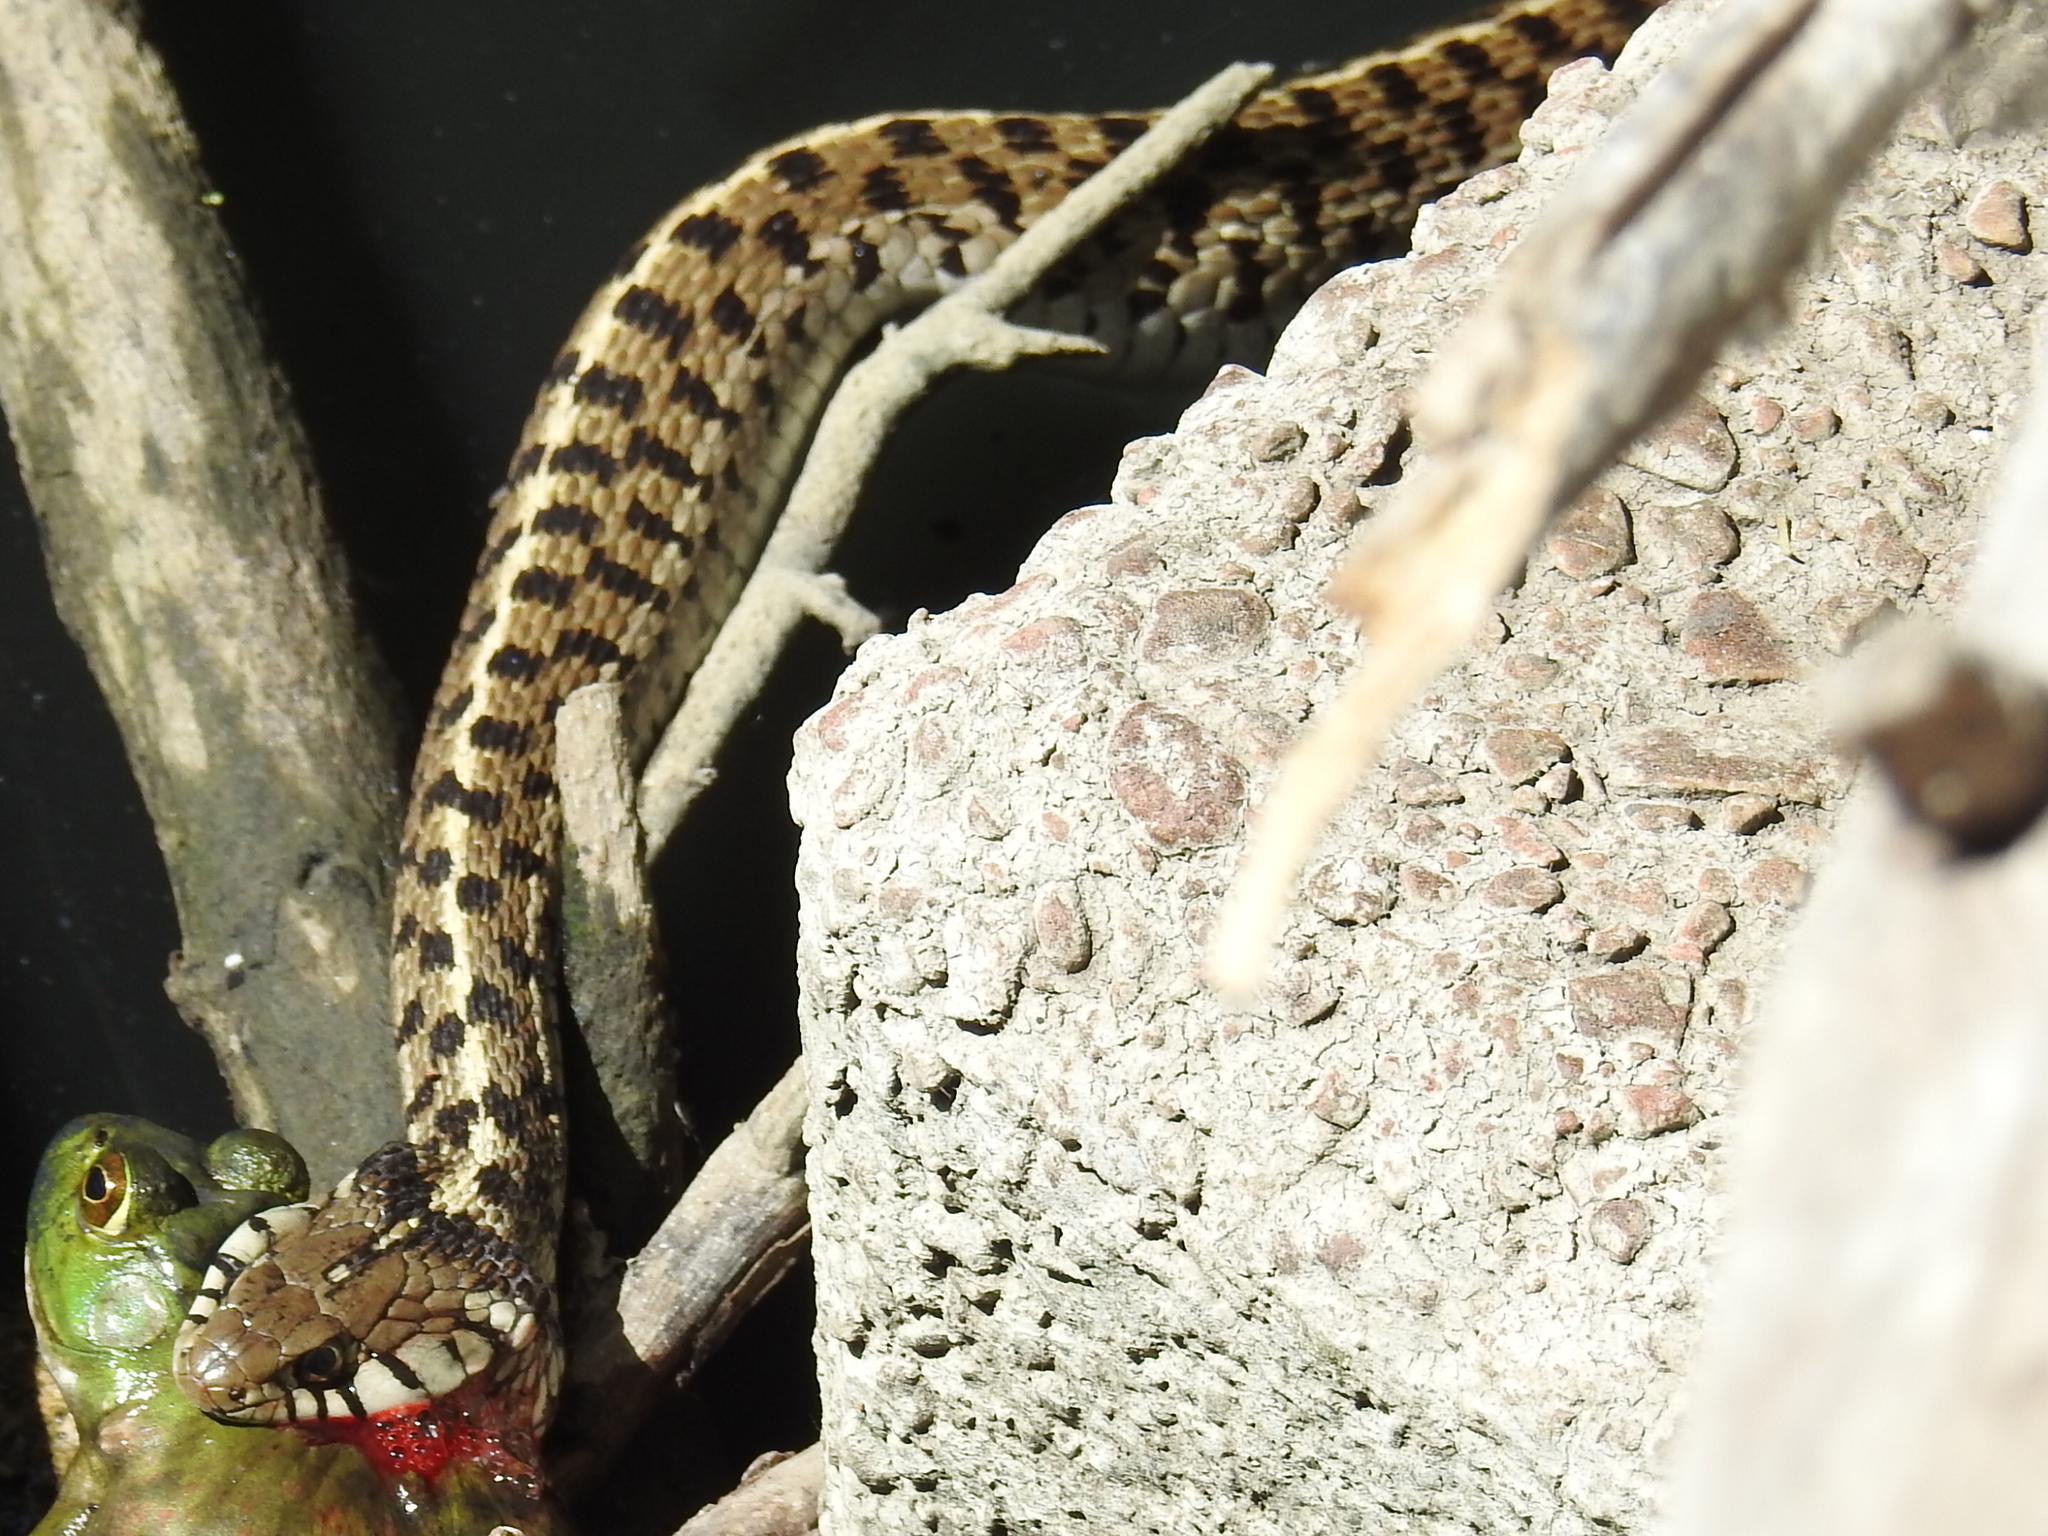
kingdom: Animalia
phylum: Chordata
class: Squamata
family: Colubridae
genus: Thamnophis
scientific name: Thamnophis marcianus
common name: Checkered garter snake
